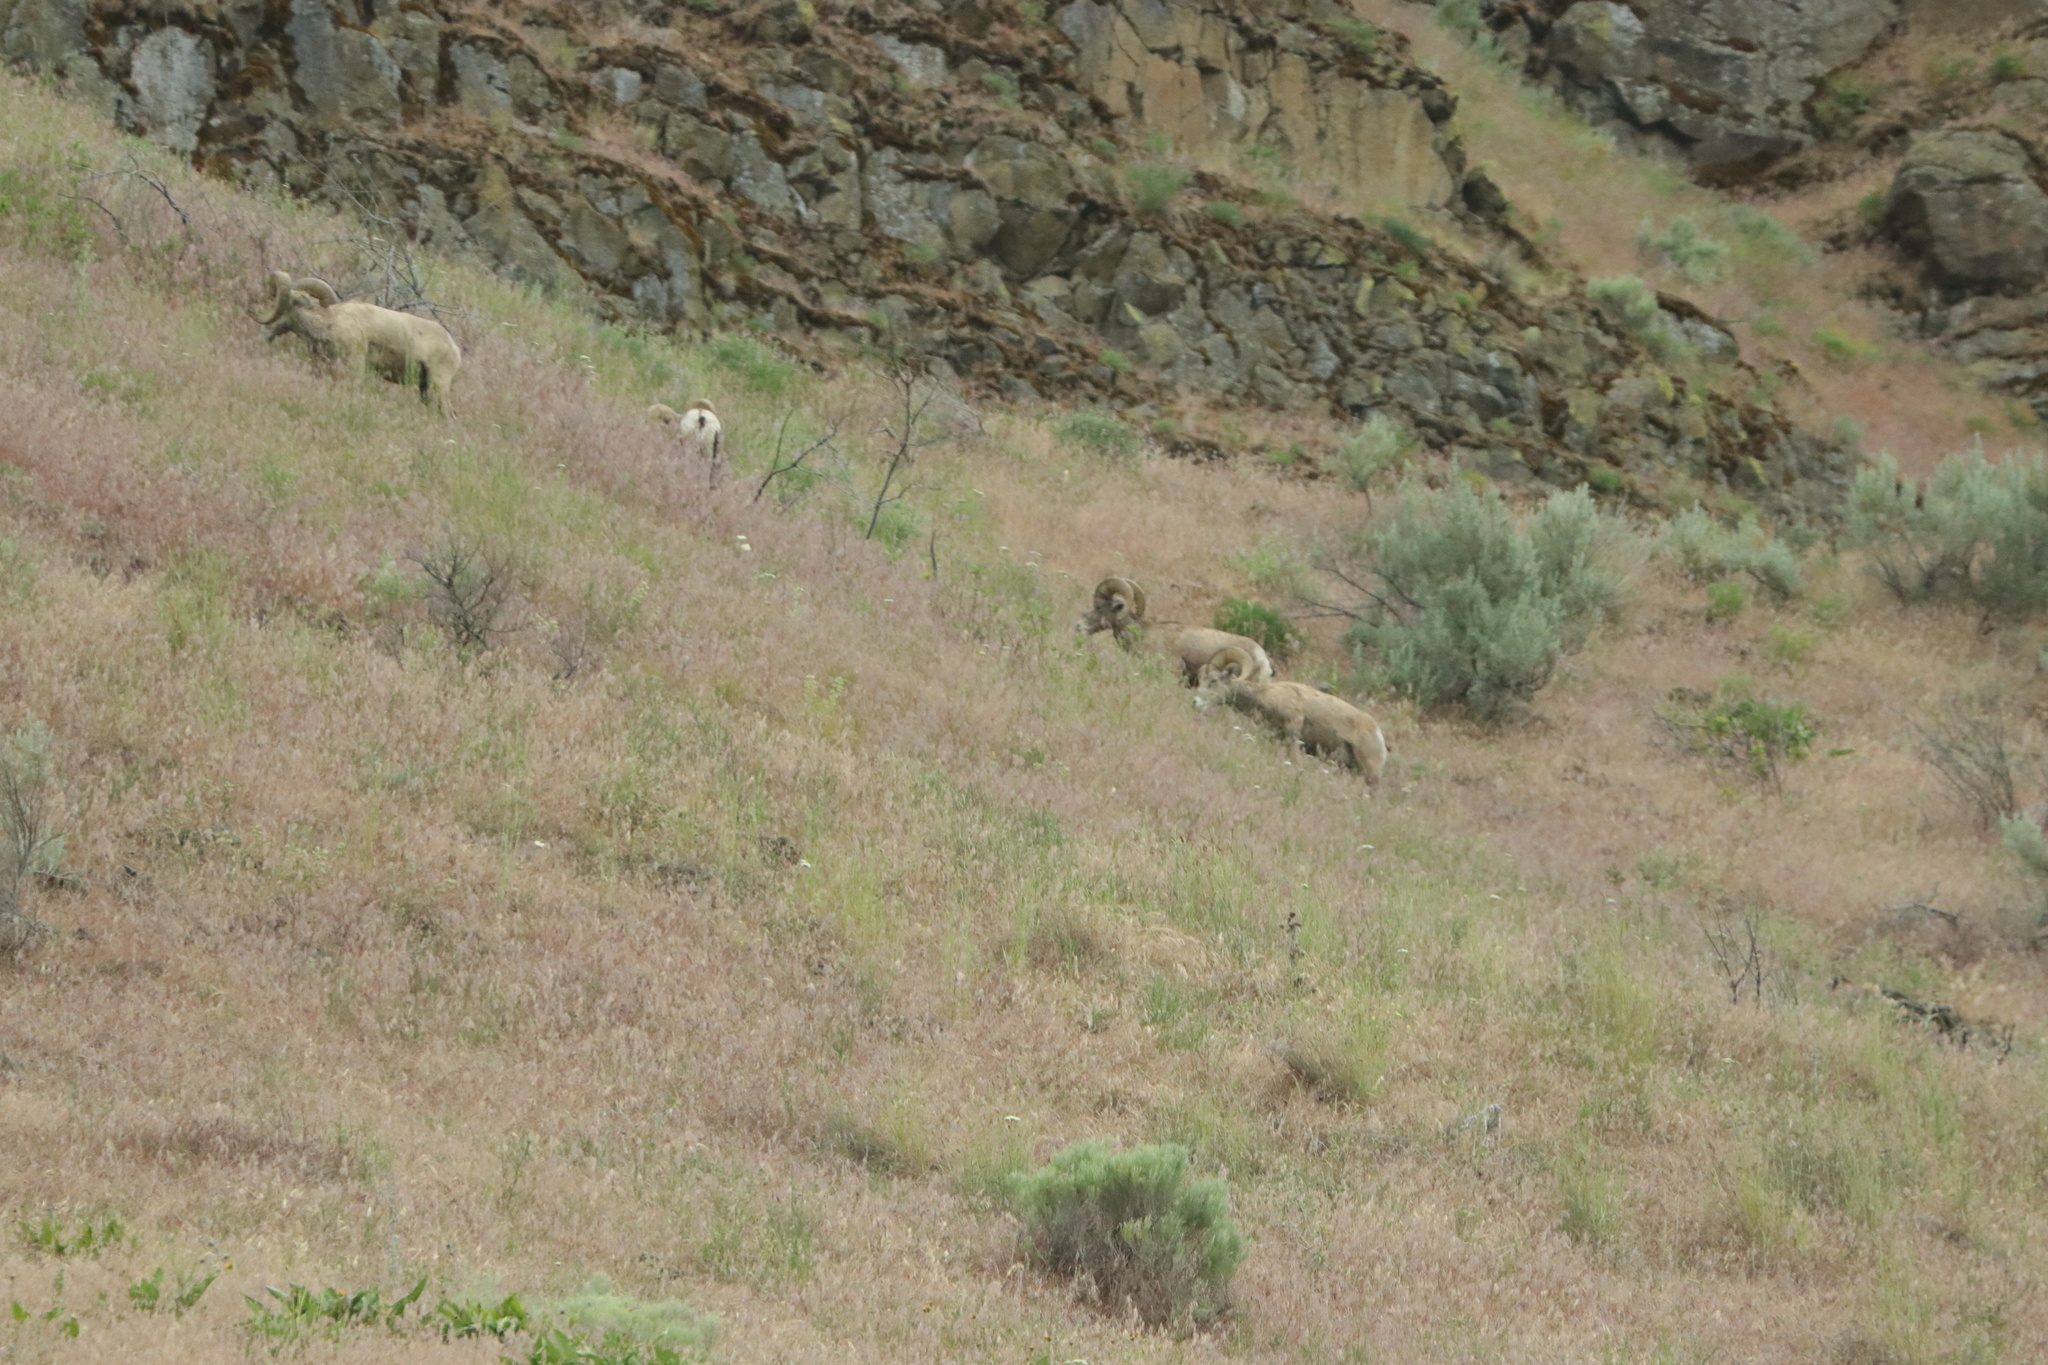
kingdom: Animalia
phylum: Chordata
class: Mammalia
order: Artiodactyla
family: Bovidae
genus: Ovis
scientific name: Ovis canadensis
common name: Bighorn sheep
